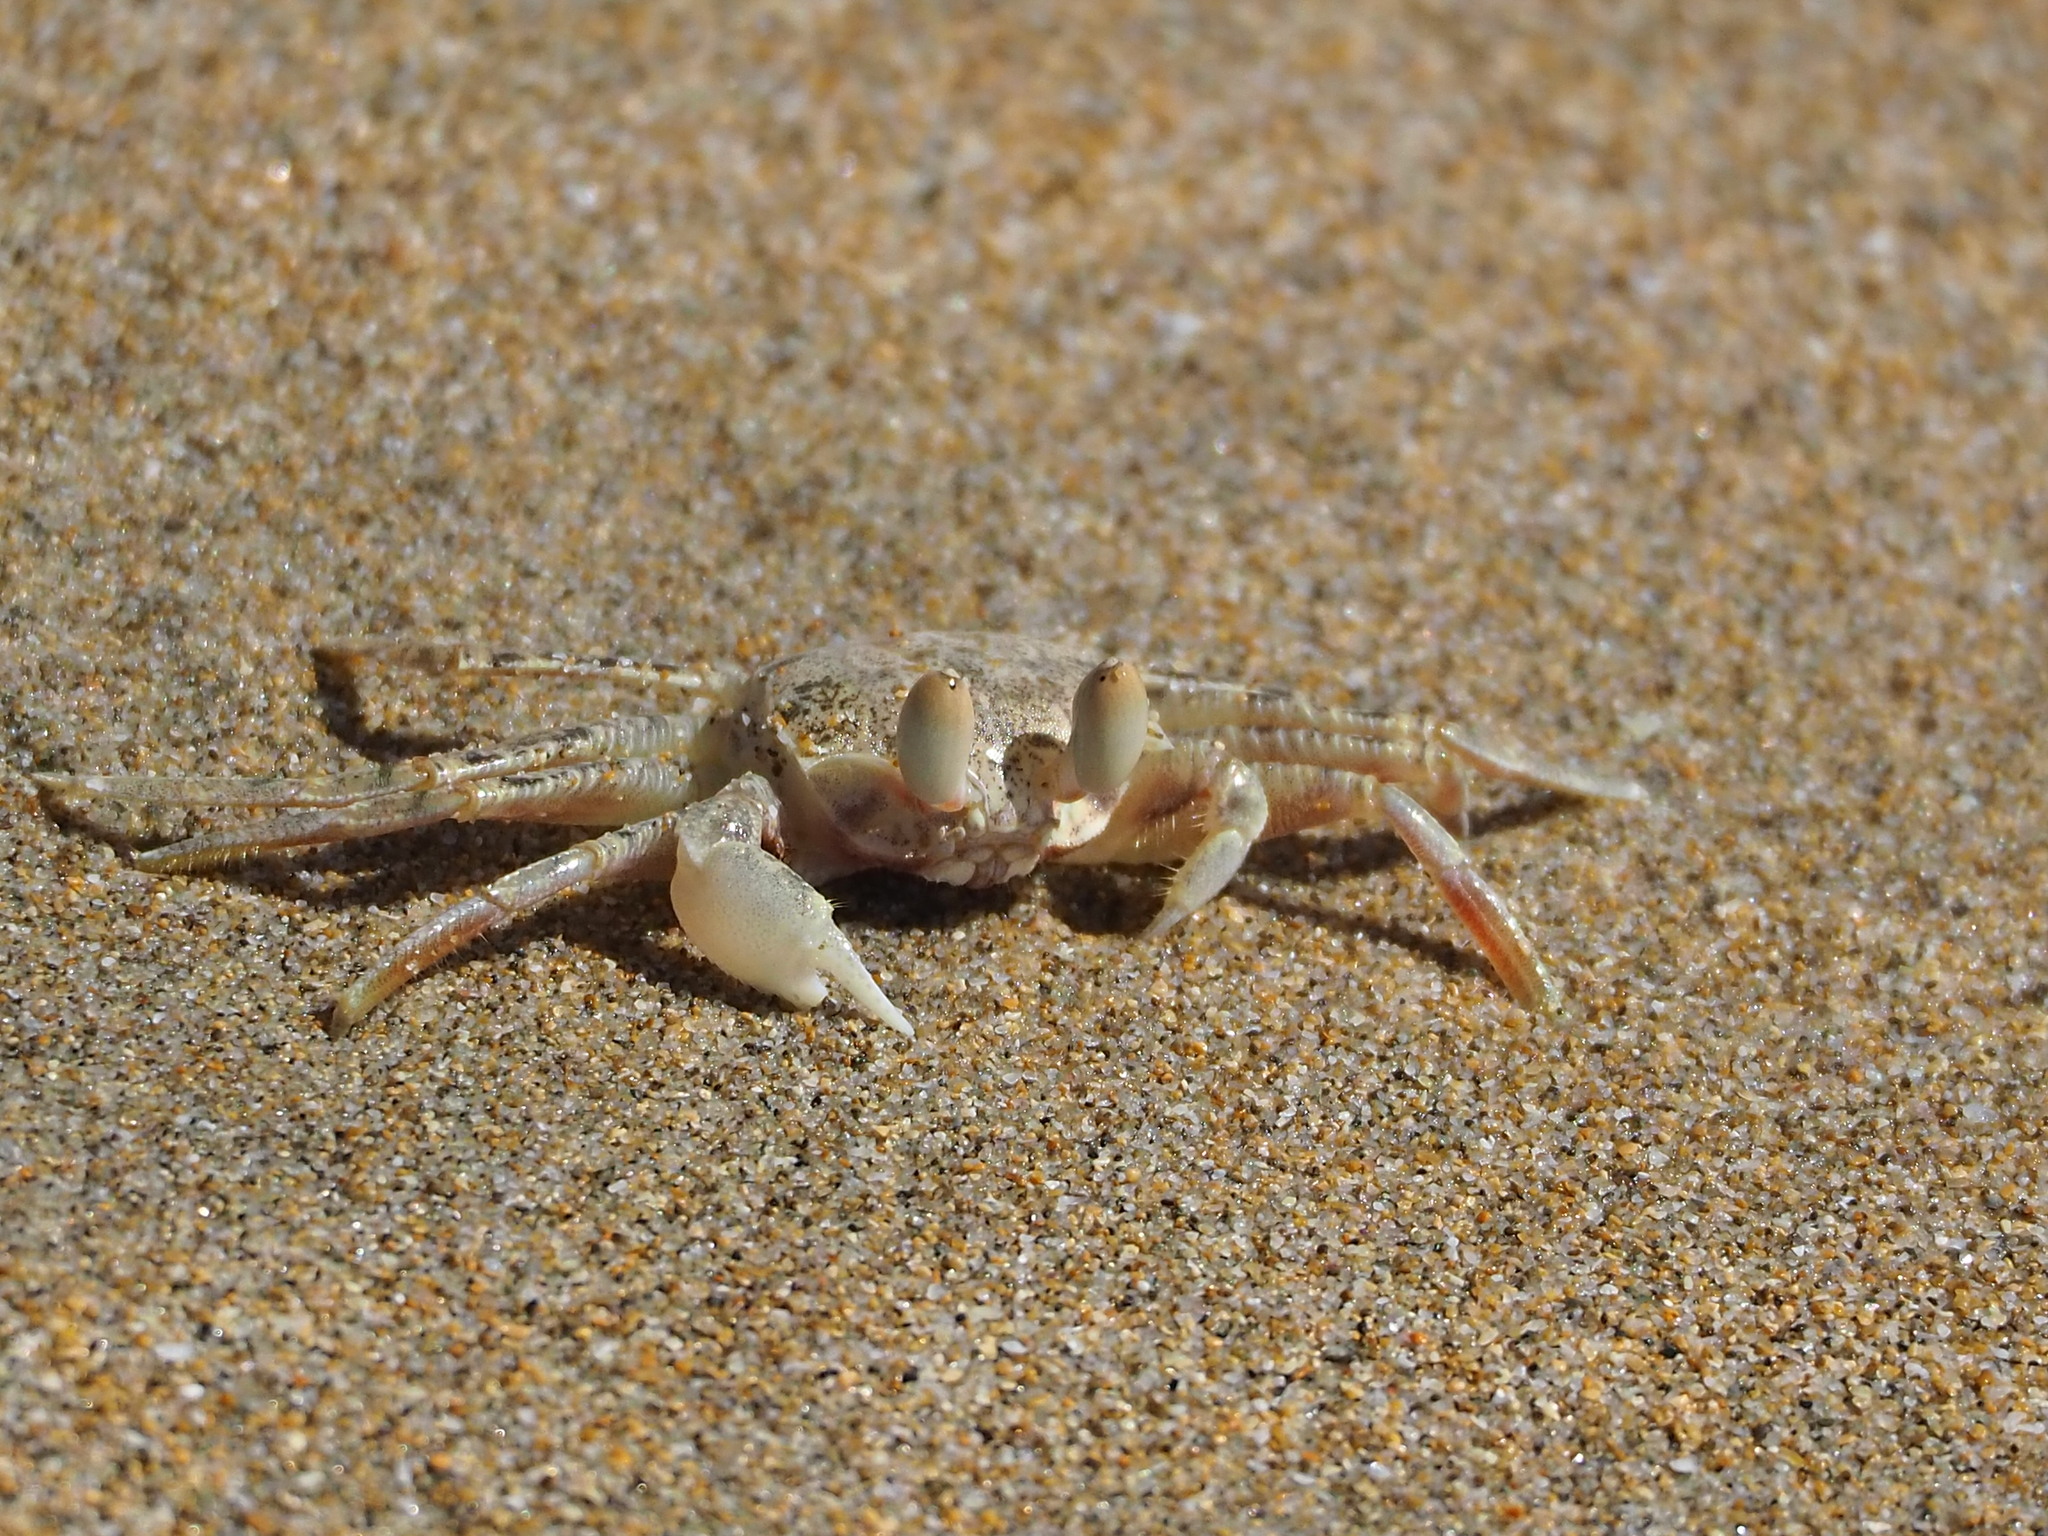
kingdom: Animalia
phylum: Arthropoda
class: Malacostraca
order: Decapoda
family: Ocypodidae
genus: Ocypode
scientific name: Ocypode ceratophthalmus
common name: Indo-pacific ghost crab
